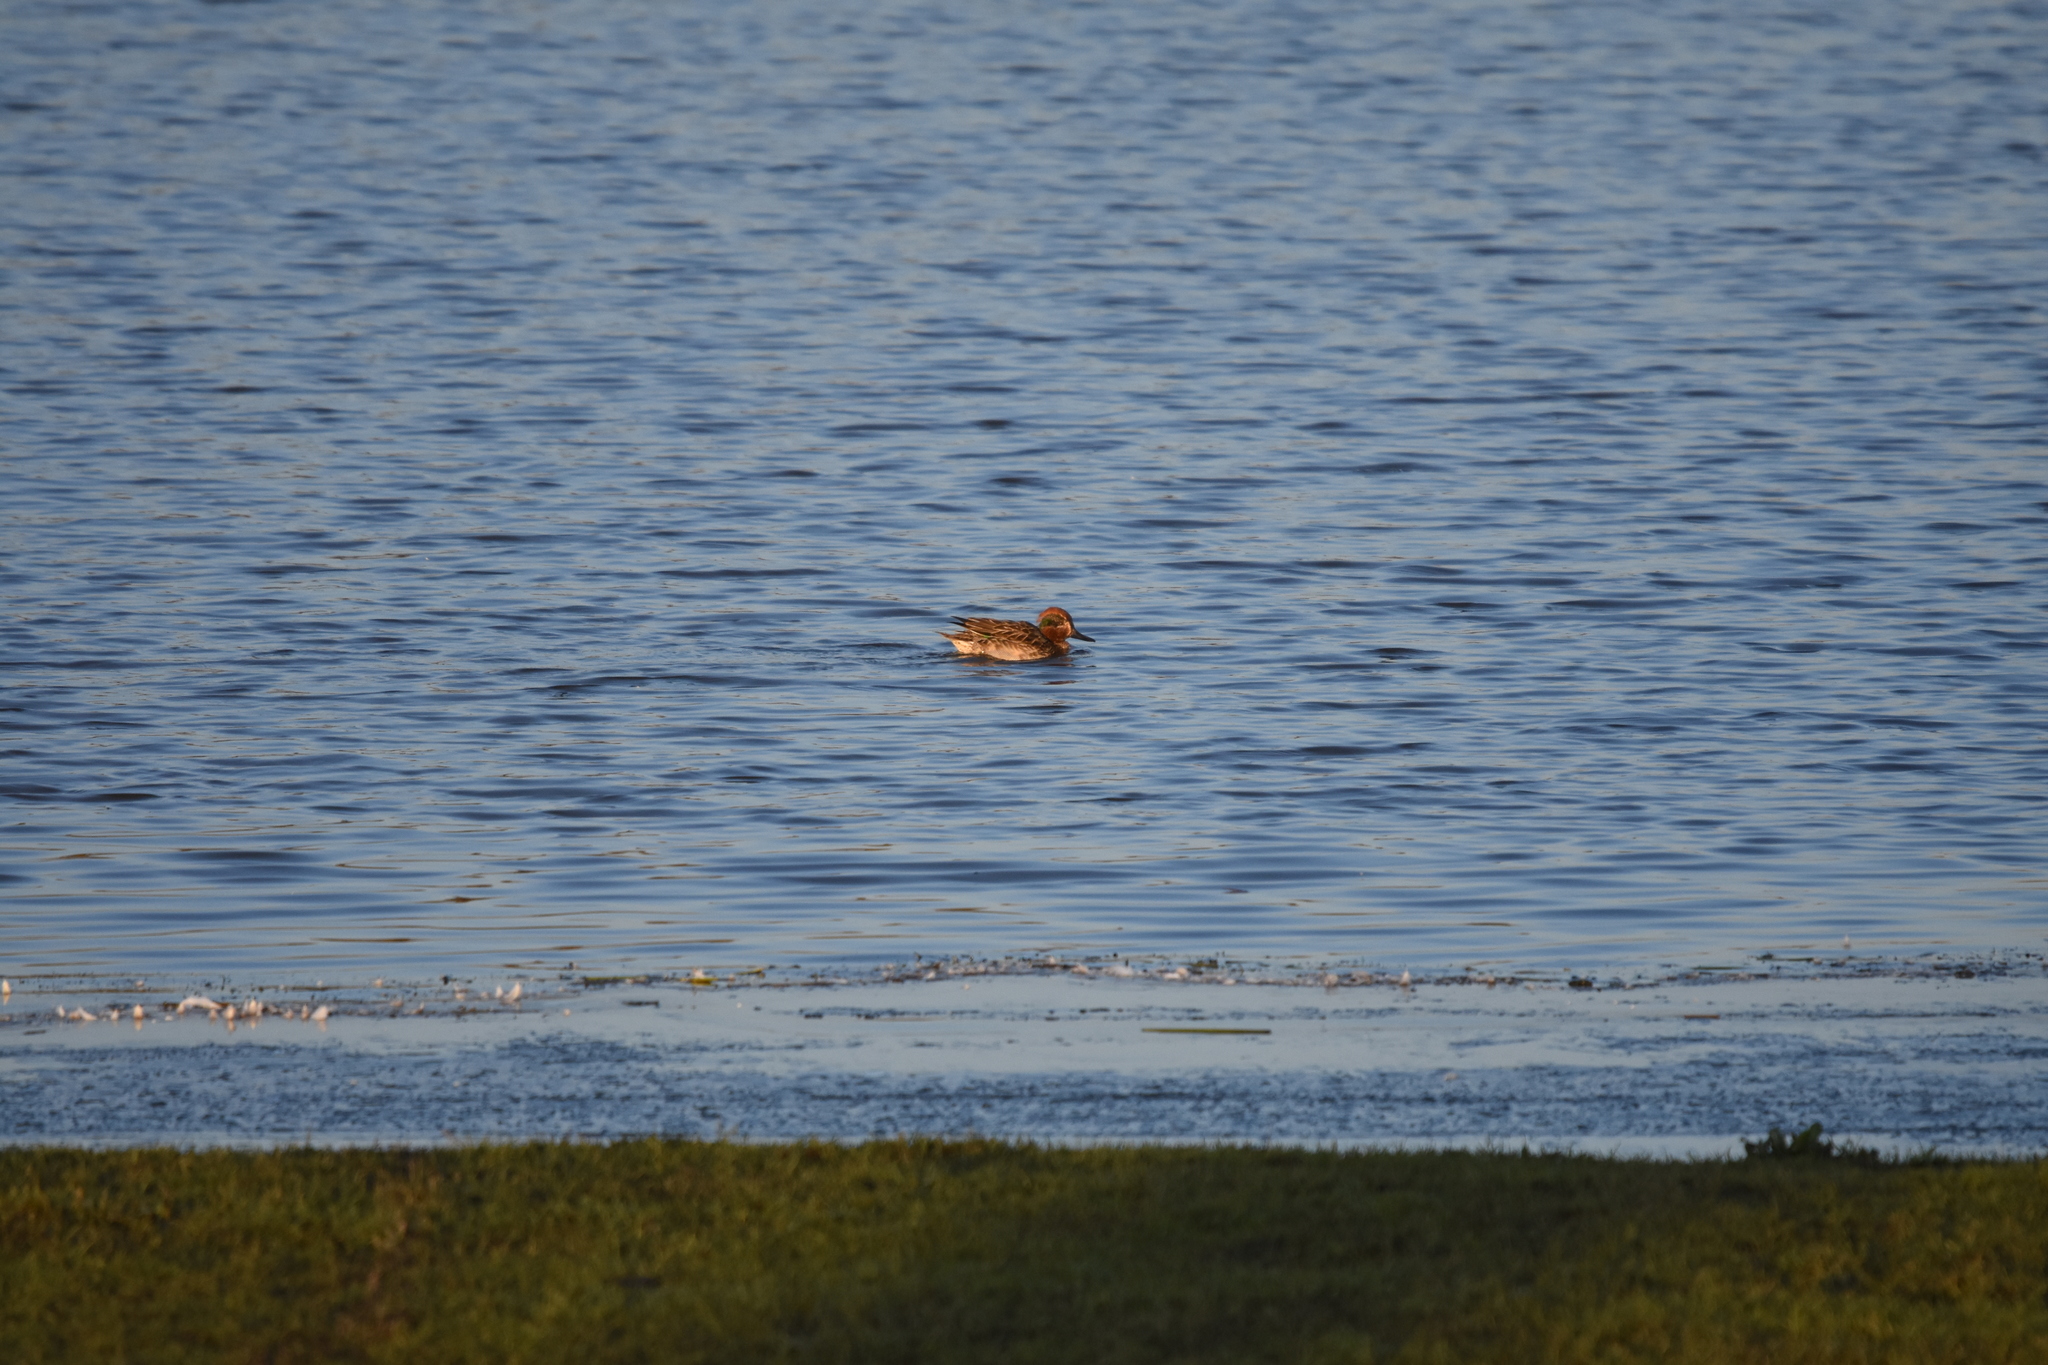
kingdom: Animalia
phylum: Chordata
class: Aves
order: Anseriformes
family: Anatidae
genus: Anas
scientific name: Anas crecca
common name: Eurasian teal
